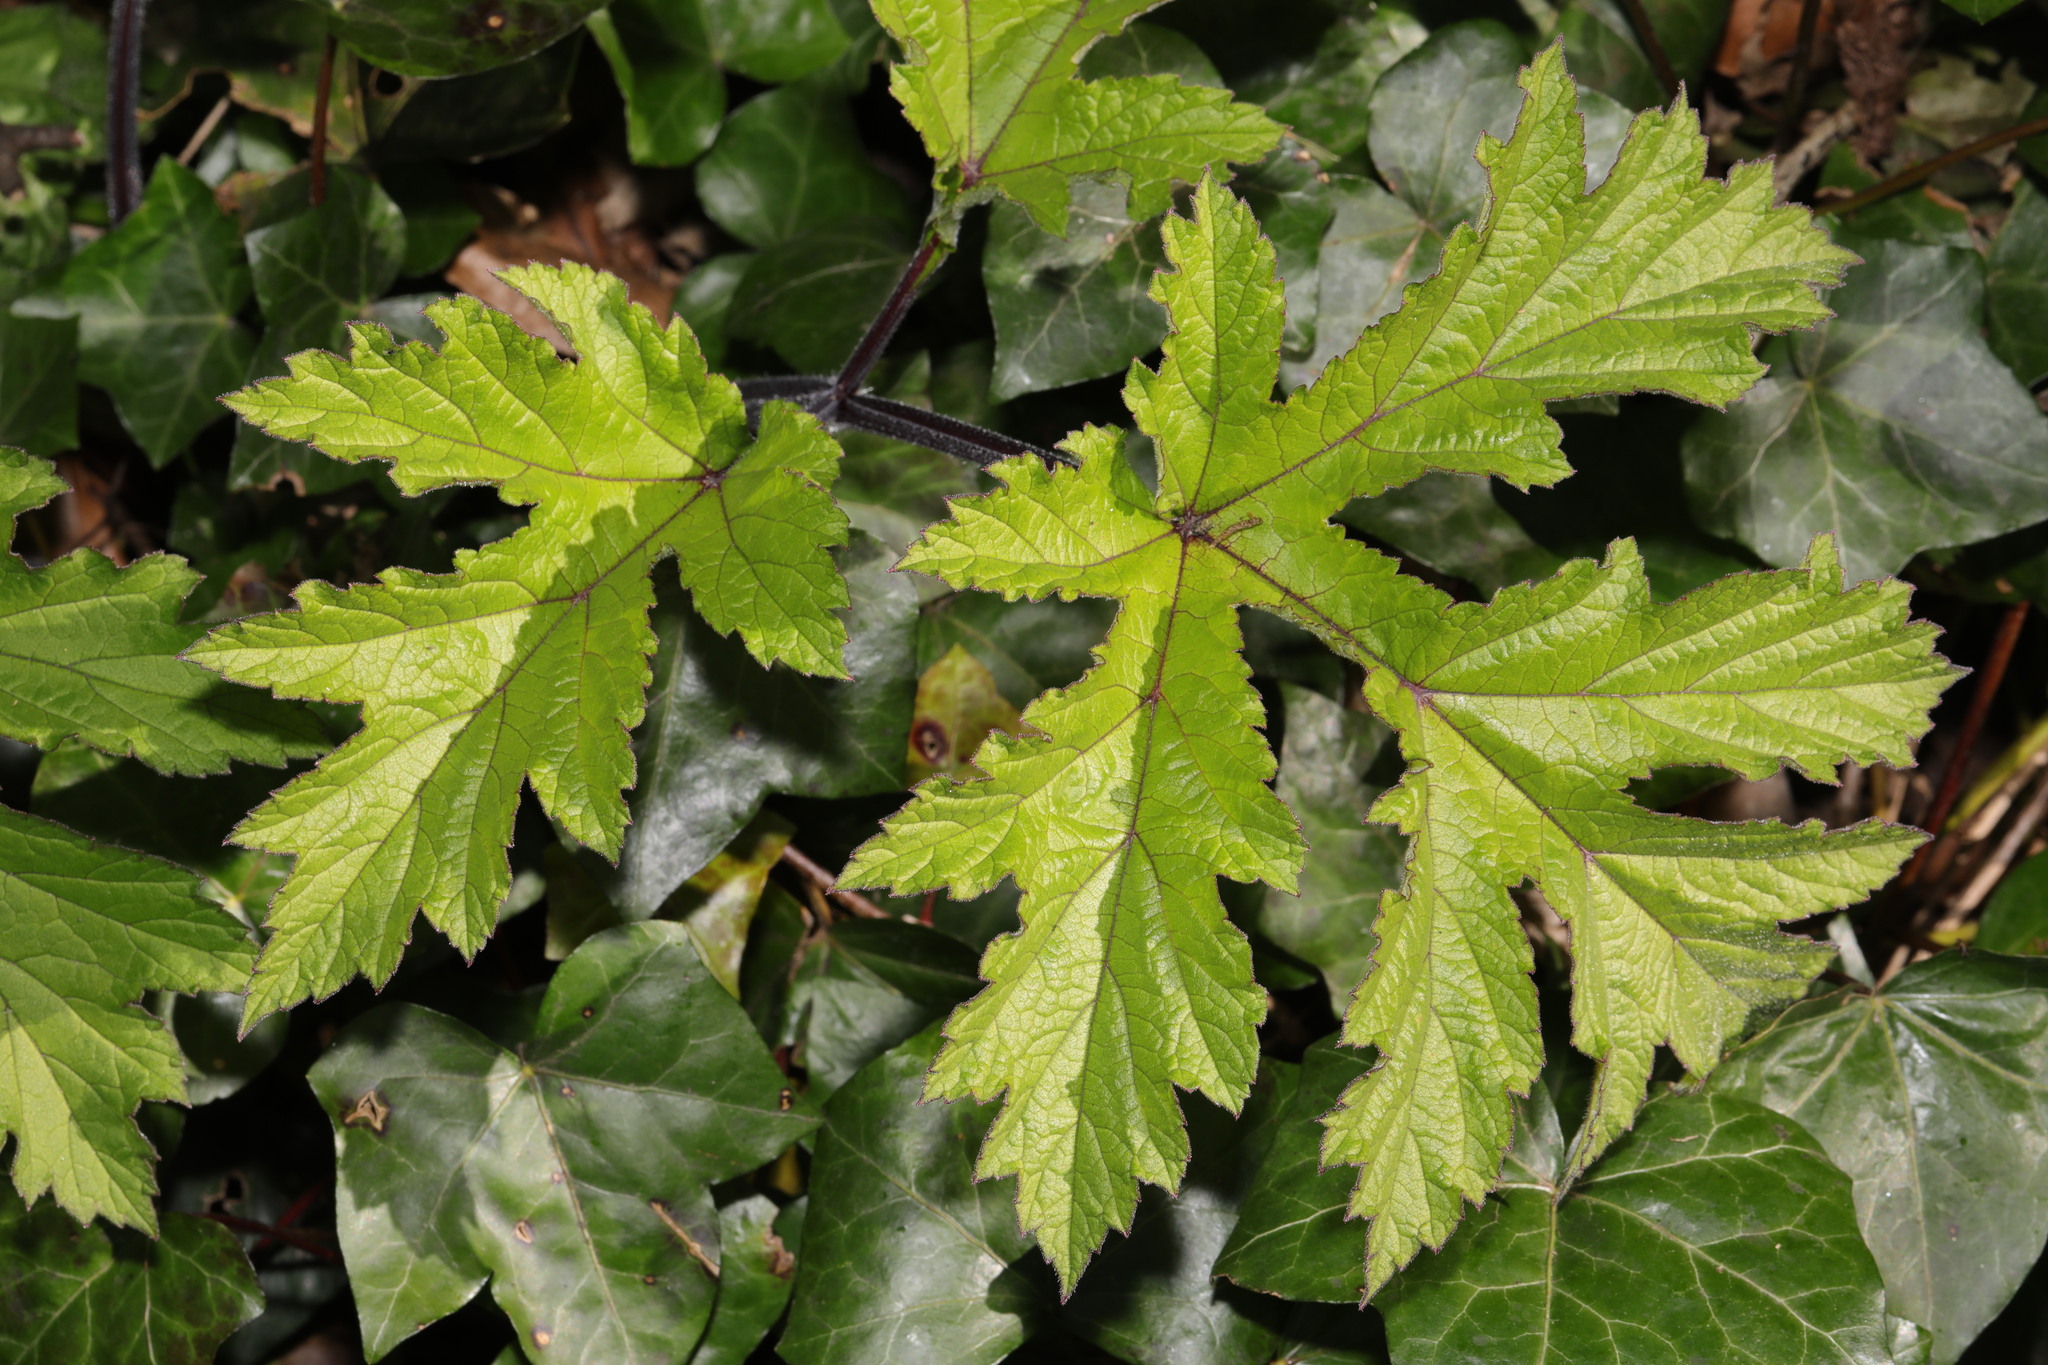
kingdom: Plantae
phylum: Tracheophyta
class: Magnoliopsida
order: Apiales
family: Apiaceae
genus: Heracleum
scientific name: Heracleum sphondylium
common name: Hogweed
